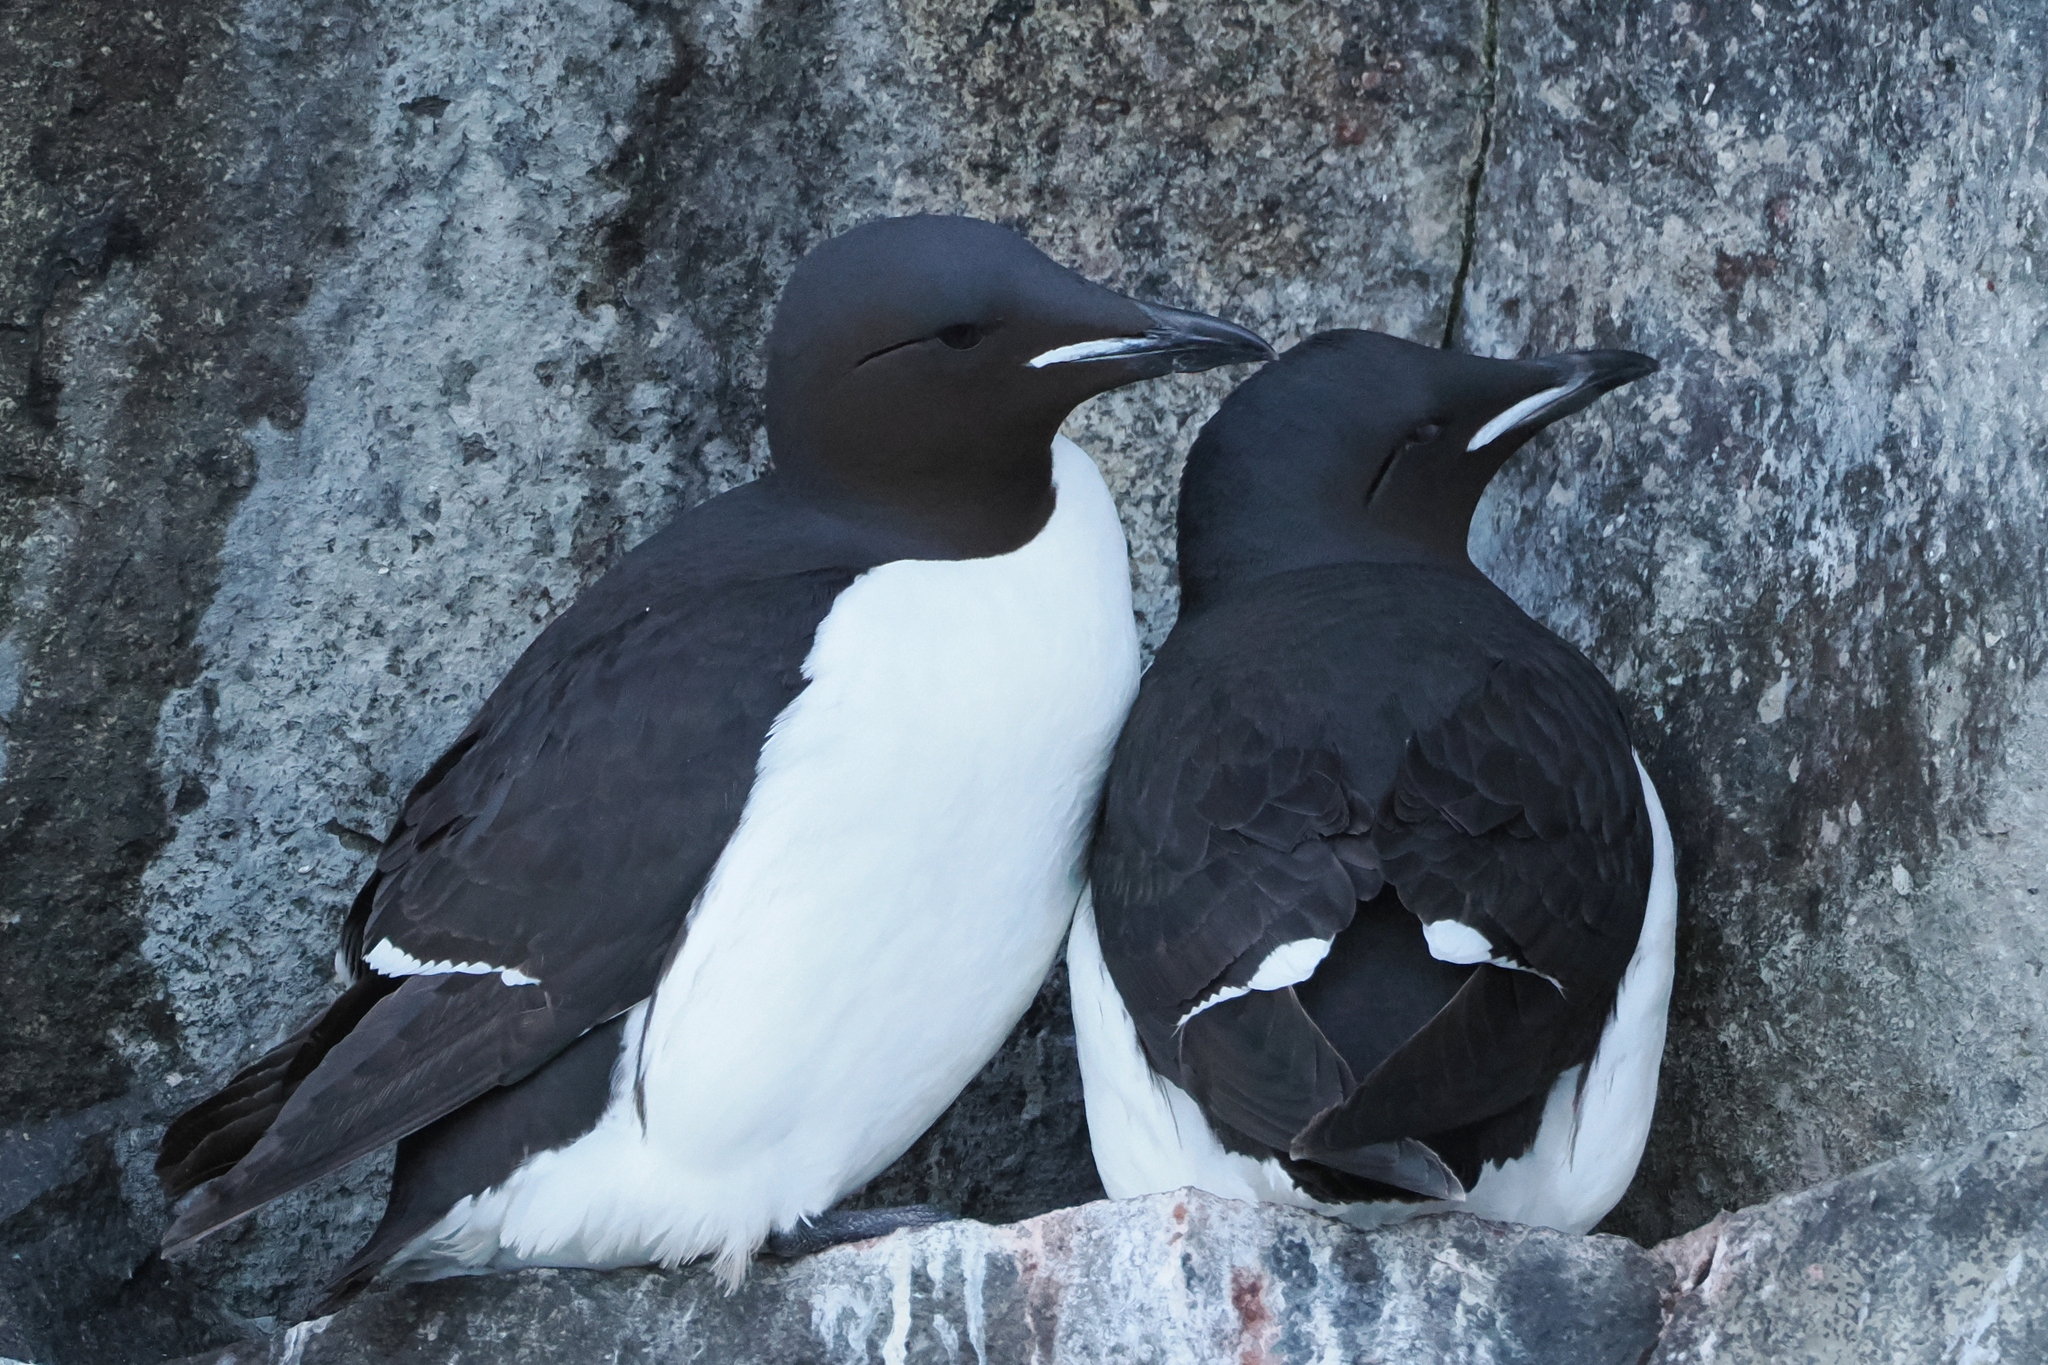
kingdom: Animalia
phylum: Chordata
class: Aves
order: Charadriiformes
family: Alcidae
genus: Uria
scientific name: Uria lomvia
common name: Thick-billed murre
